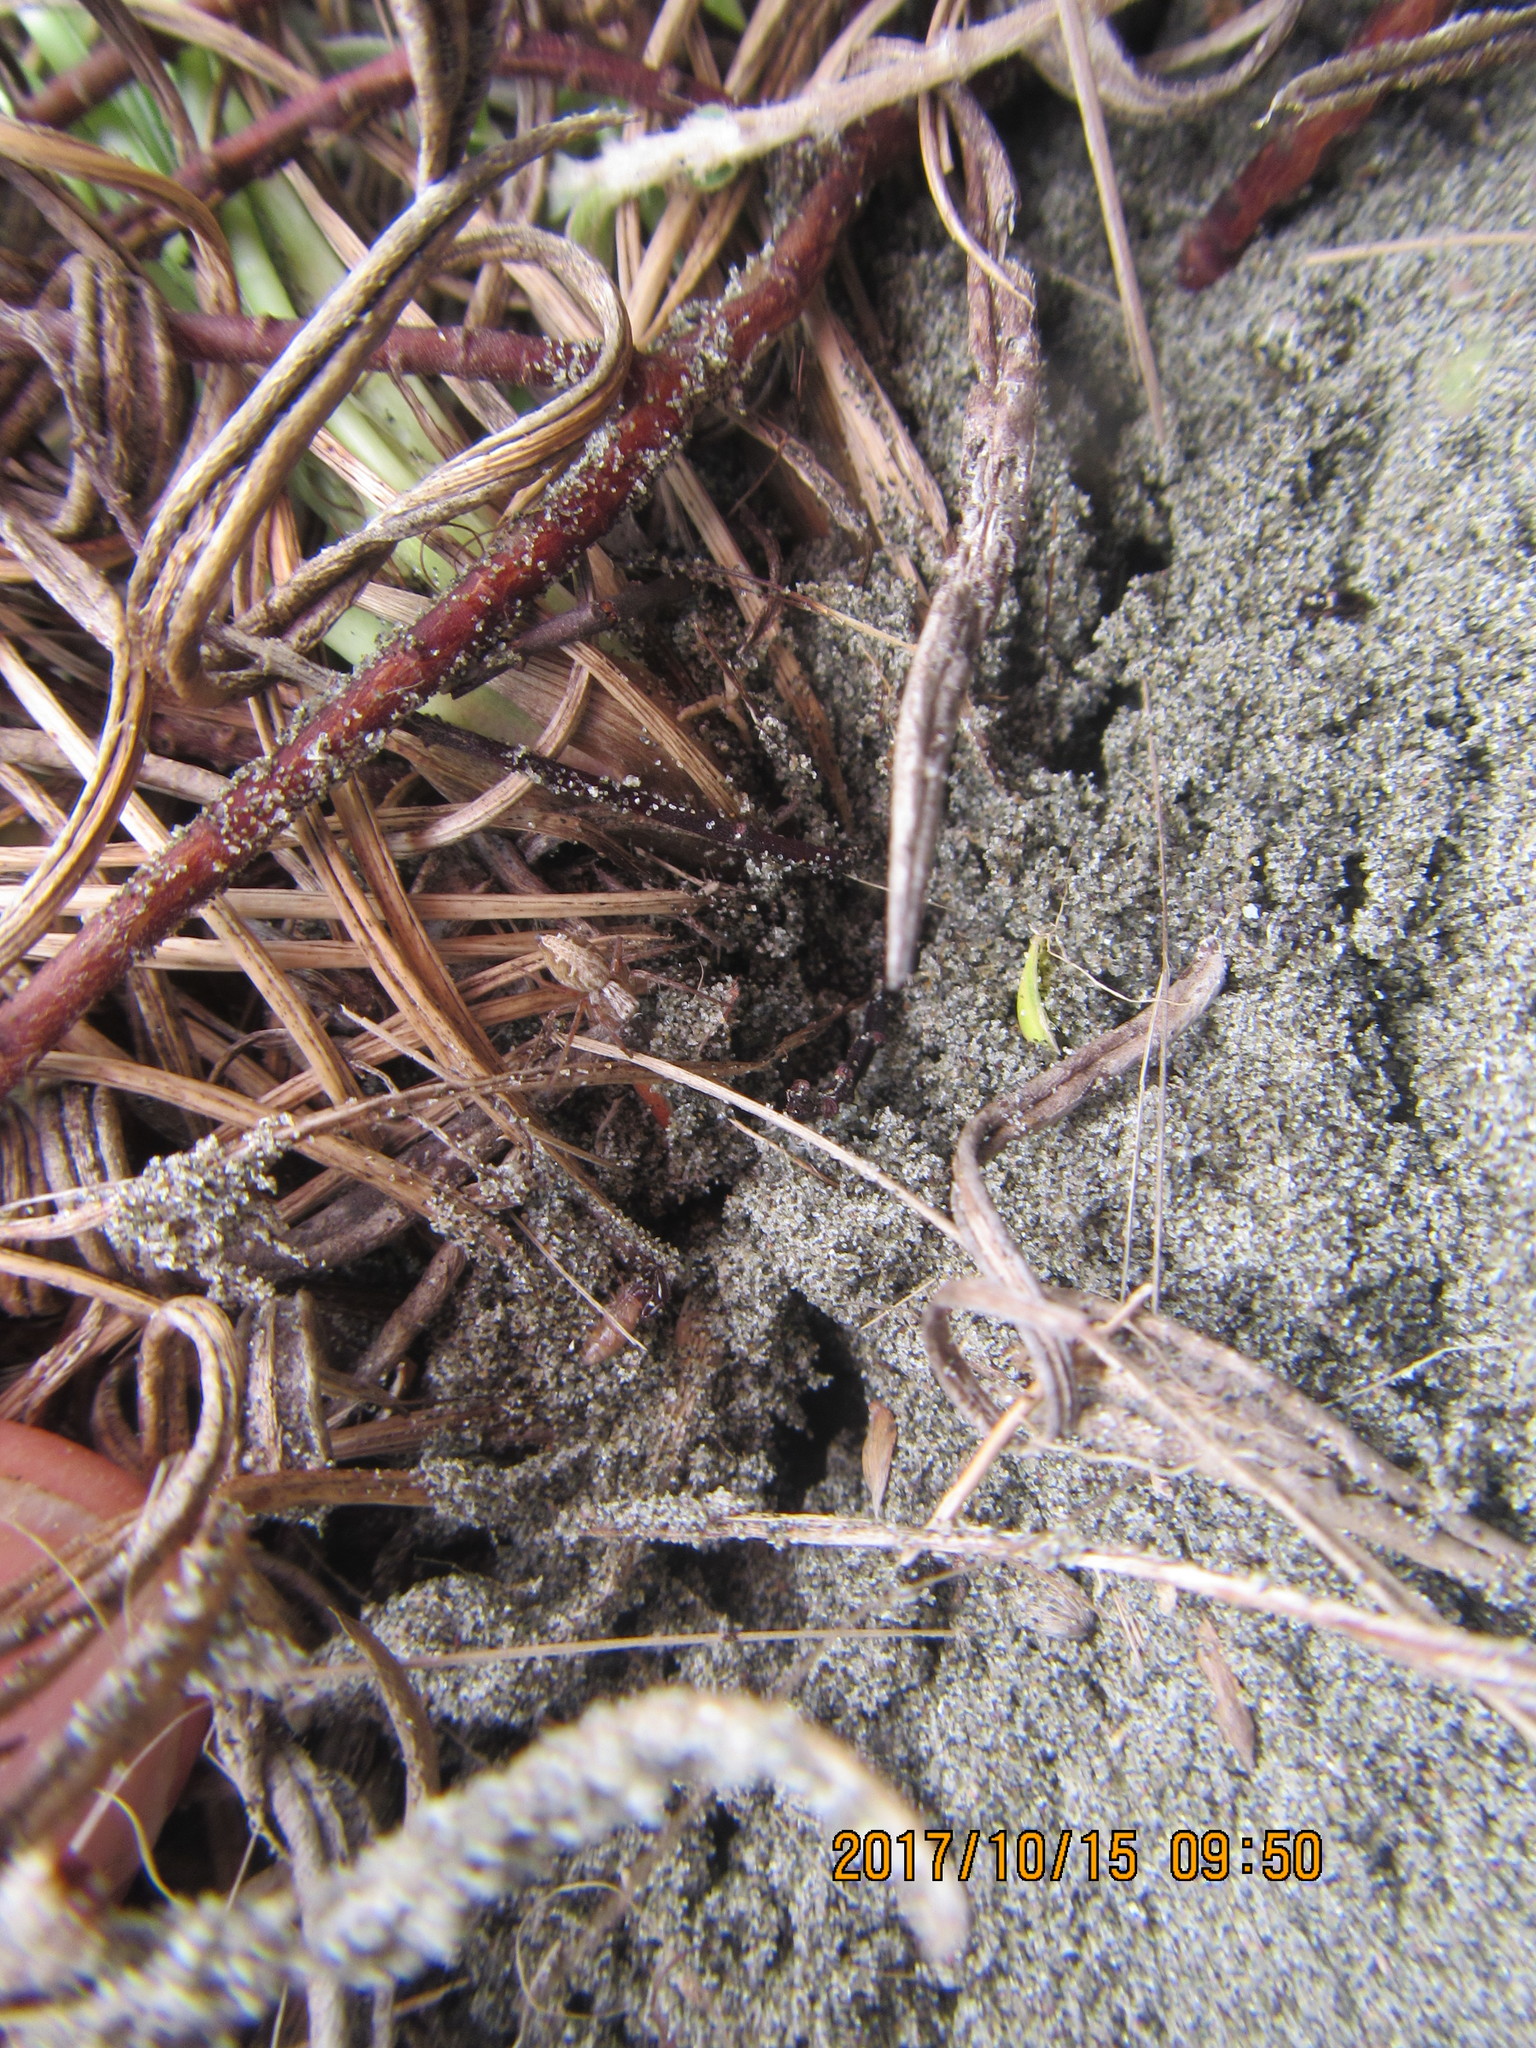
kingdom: Animalia
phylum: Arthropoda
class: Arachnida
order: Araneae
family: Oxyopidae
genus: Oxyopes
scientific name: Oxyopes gracilipes
